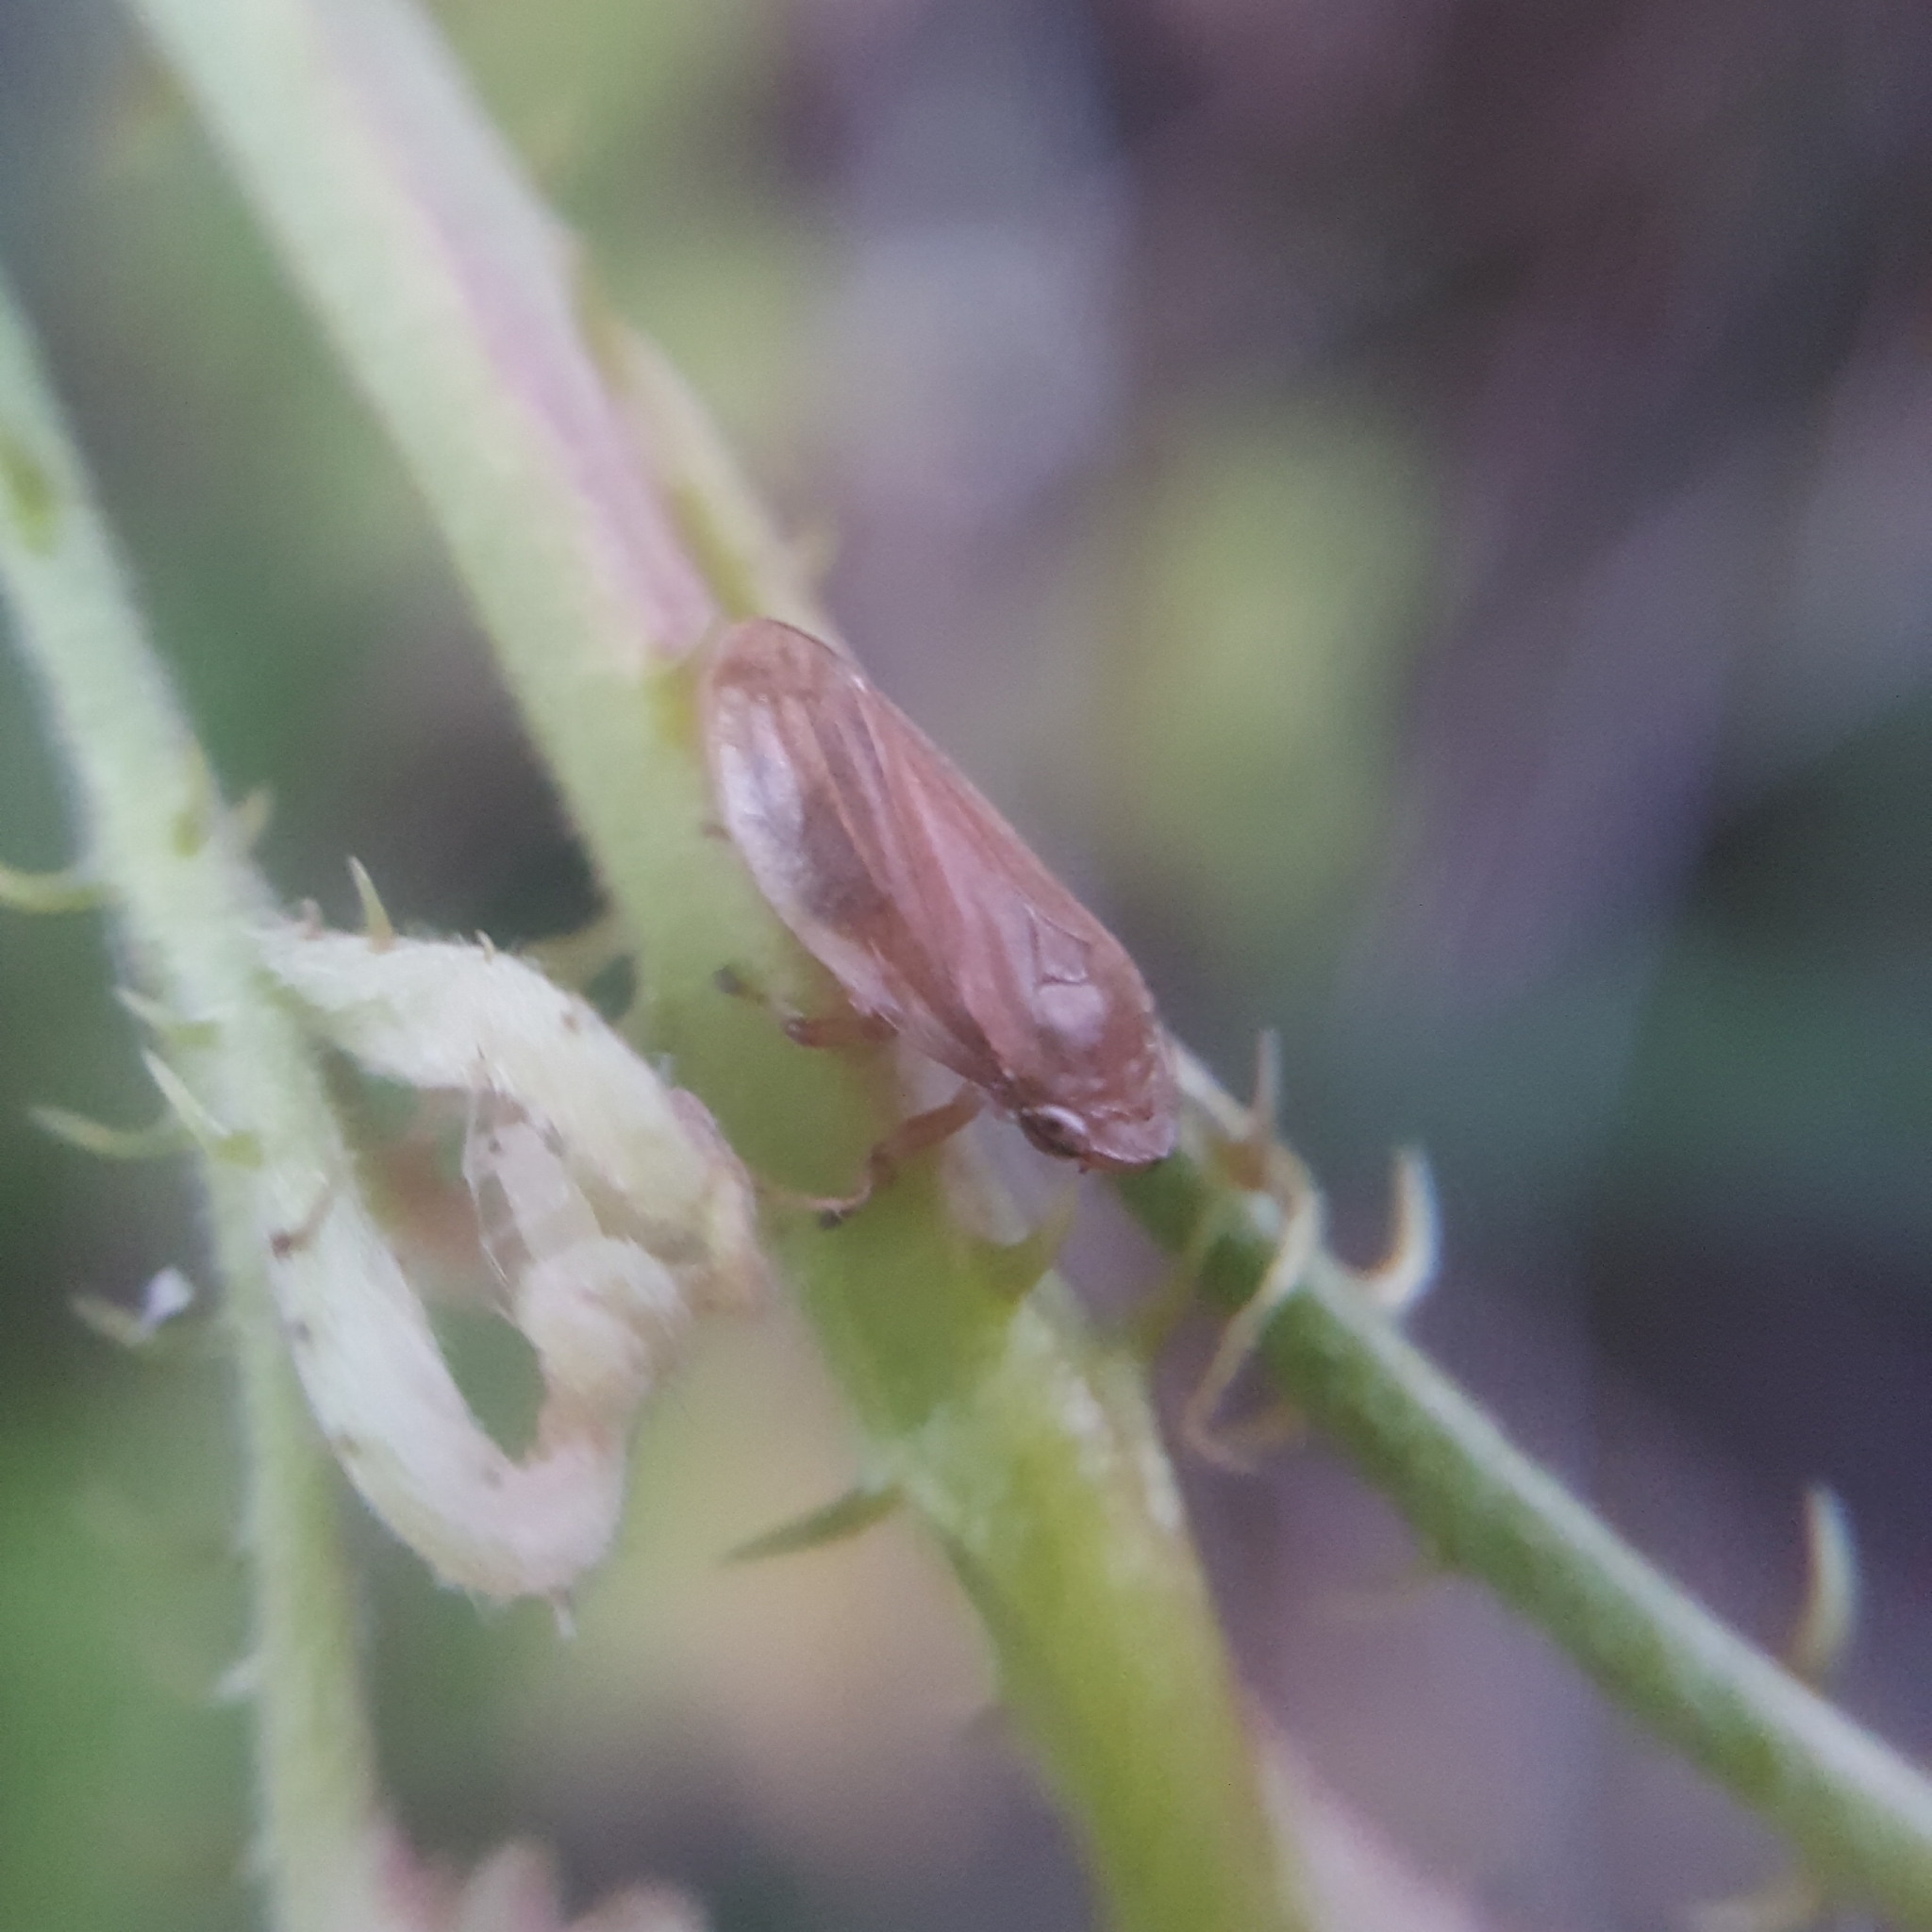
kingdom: Animalia
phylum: Arthropoda
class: Insecta
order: Hemiptera
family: Aphrophoridae
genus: Philaenus
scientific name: Philaenus spumarius
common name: Meadow spittlebug
